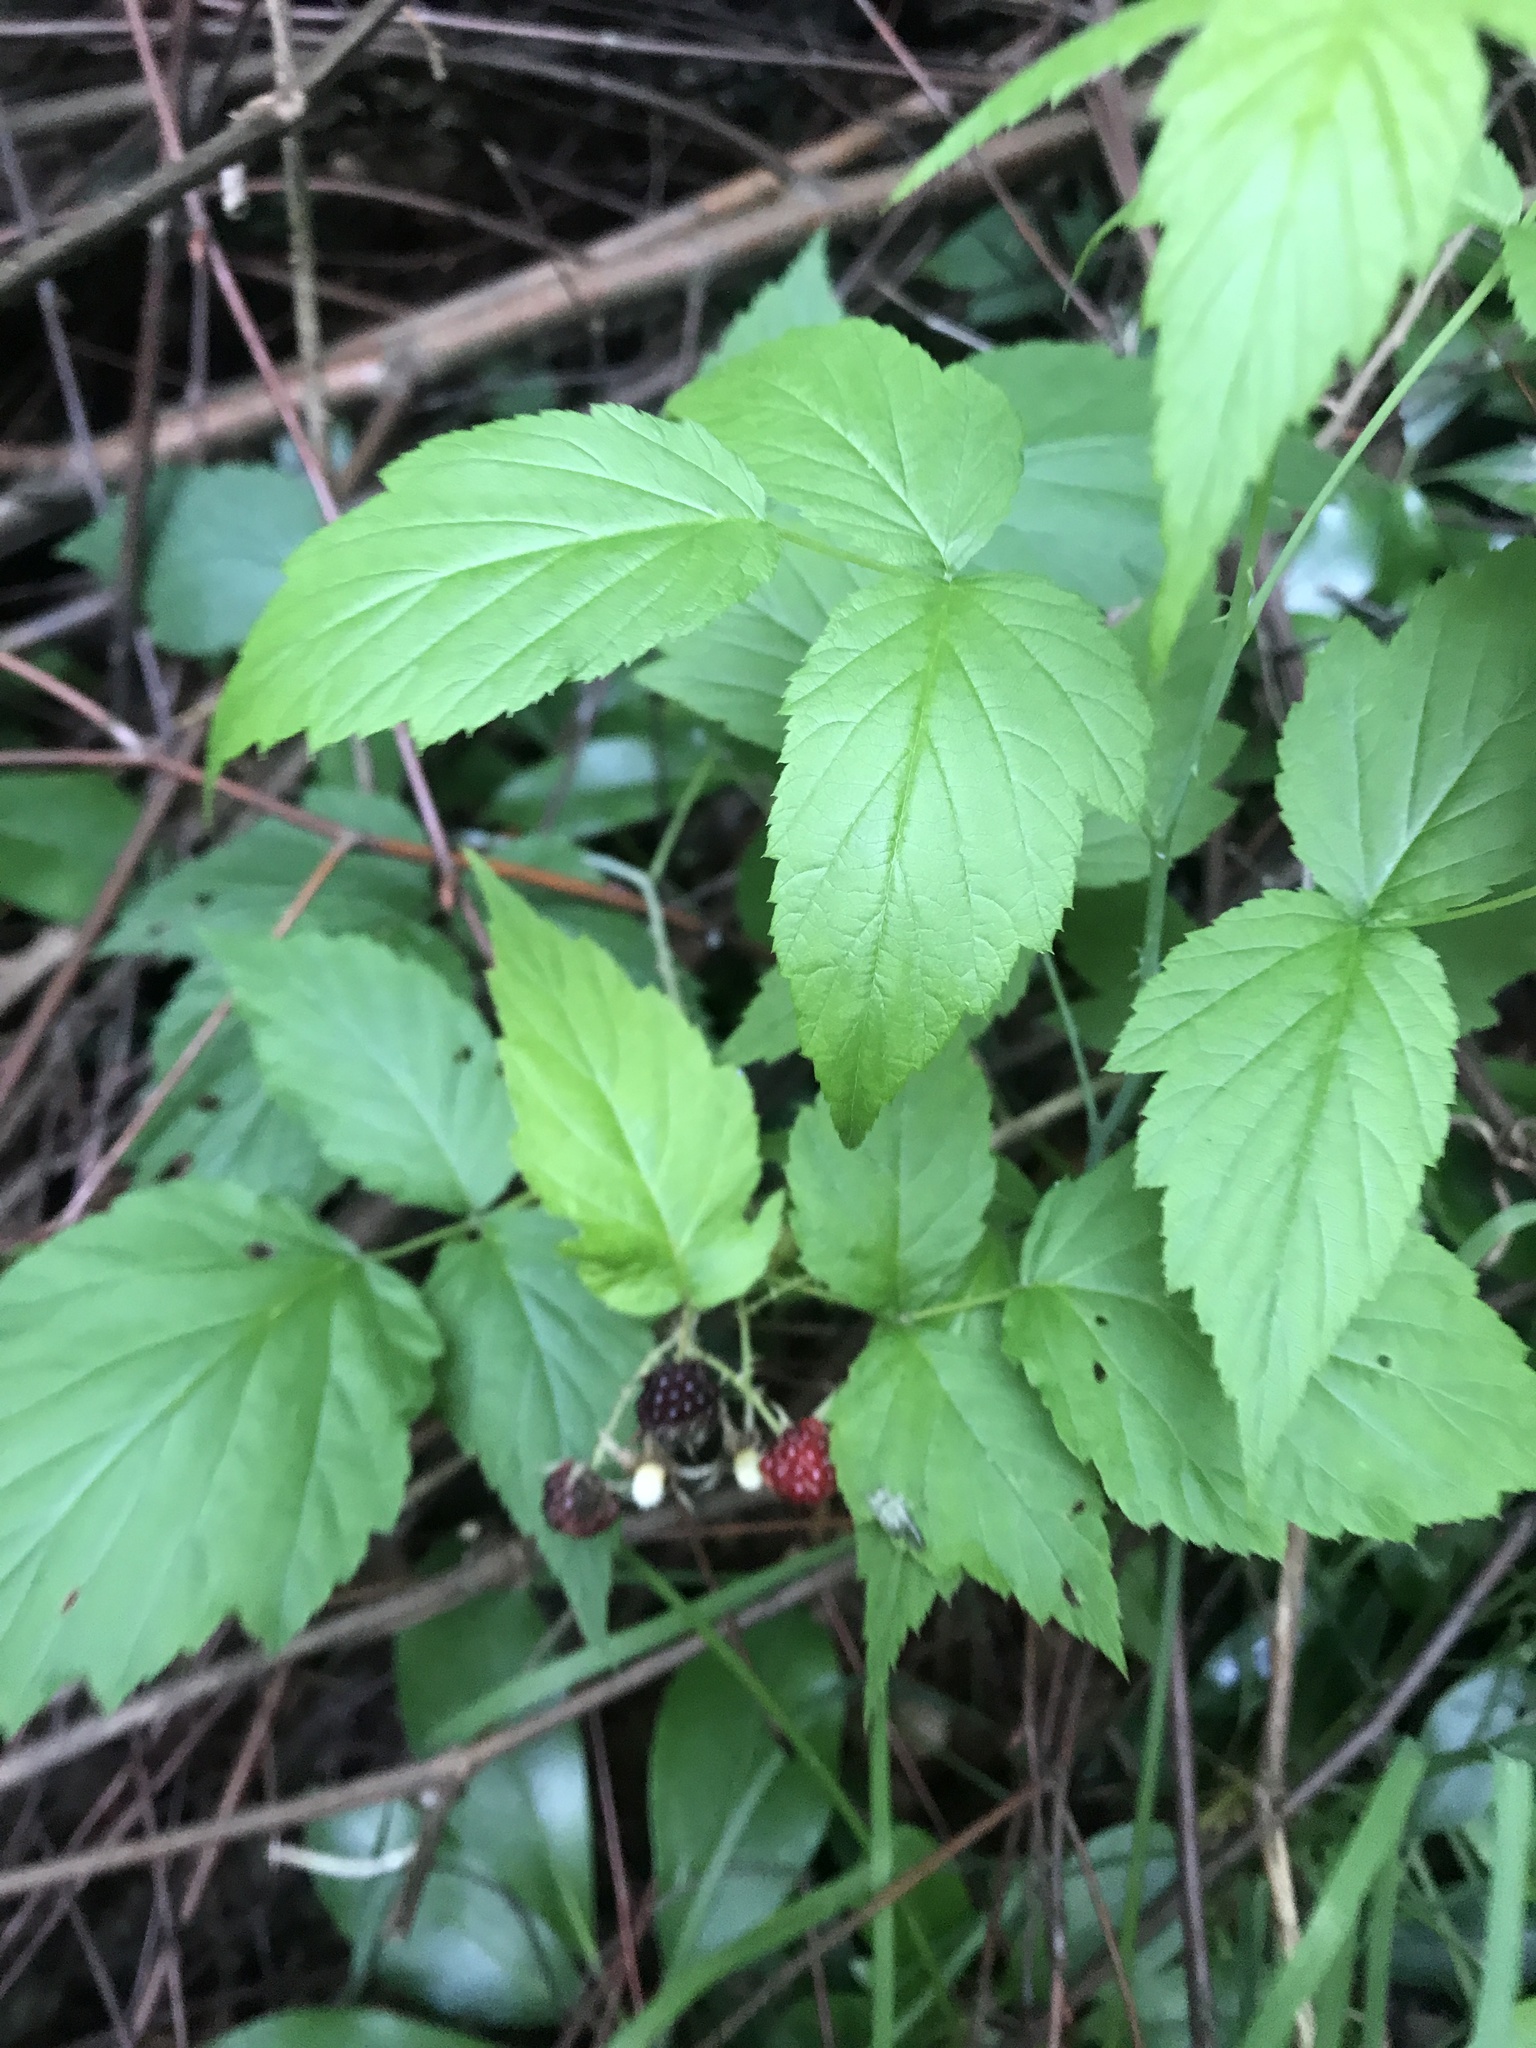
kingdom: Plantae
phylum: Tracheophyta
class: Magnoliopsida
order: Rosales
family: Rosaceae
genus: Rubus
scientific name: Rubus occidentalis
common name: Black raspberry
